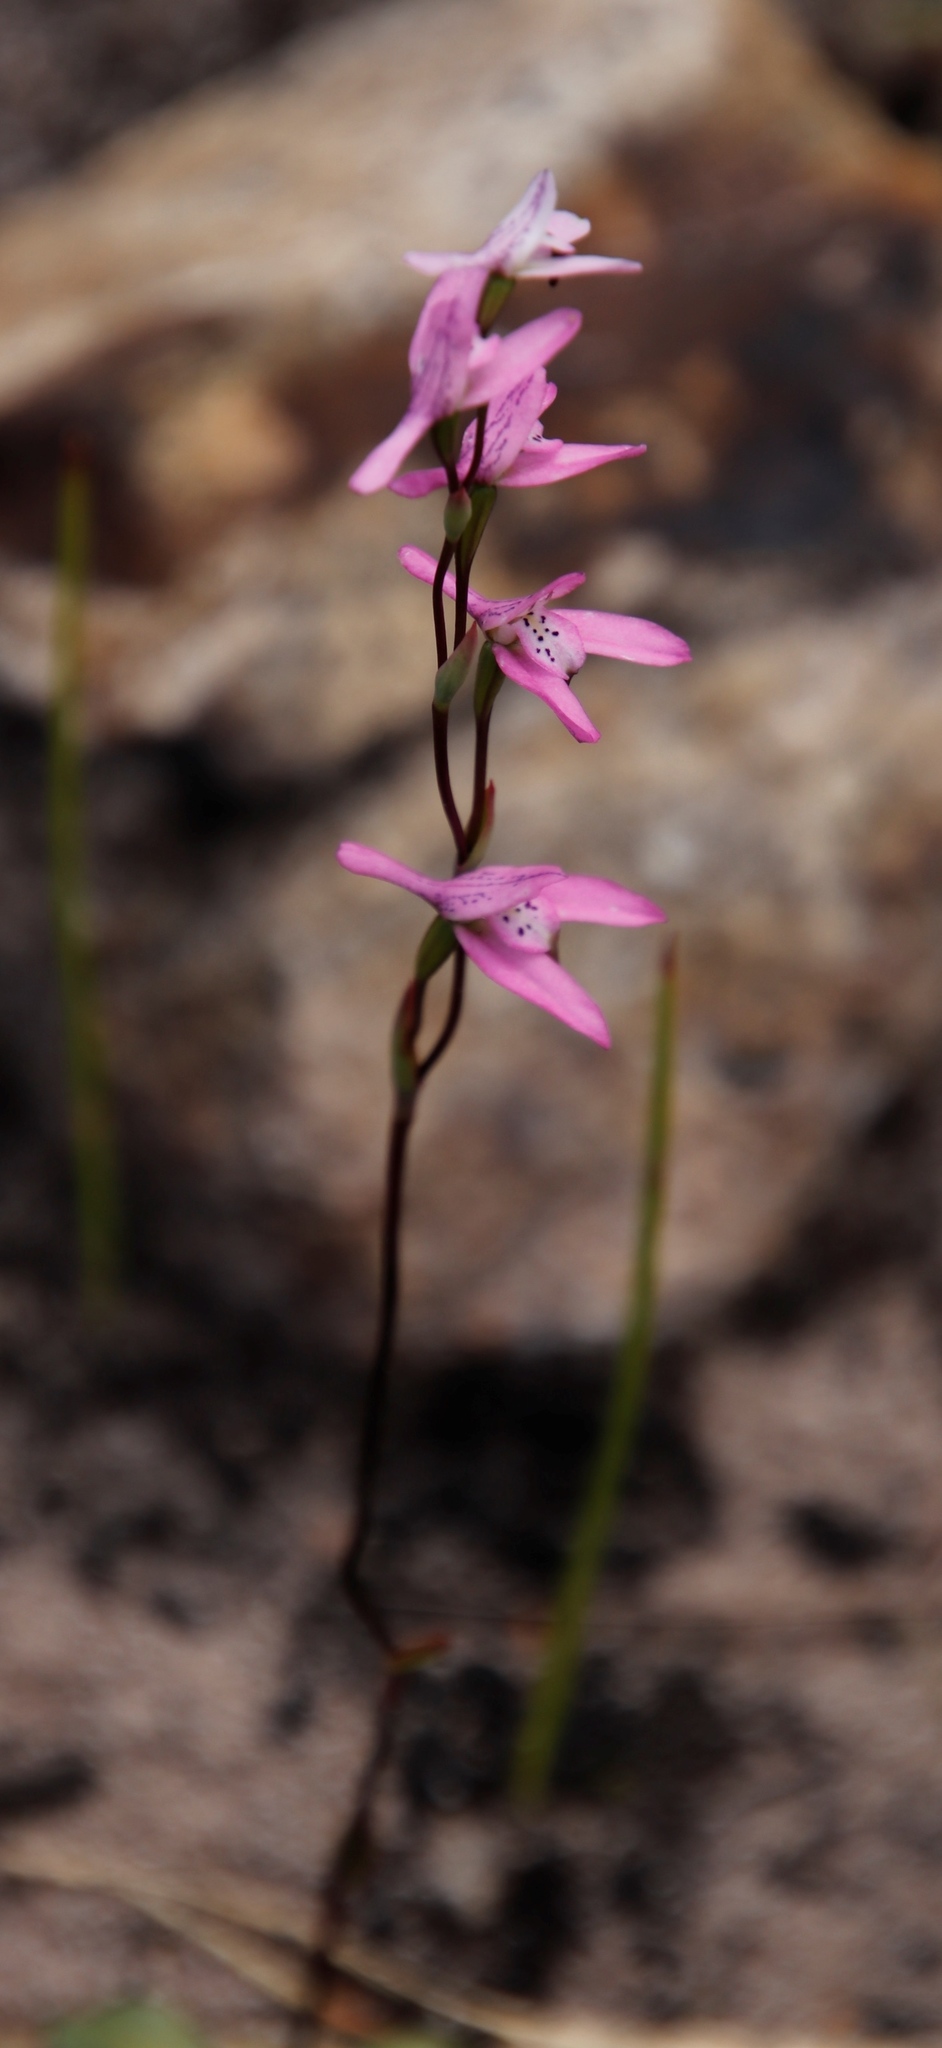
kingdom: Plantae
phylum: Tracheophyta
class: Liliopsida
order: Asparagales
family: Orchidaceae
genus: Disa
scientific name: Disa obliqua
